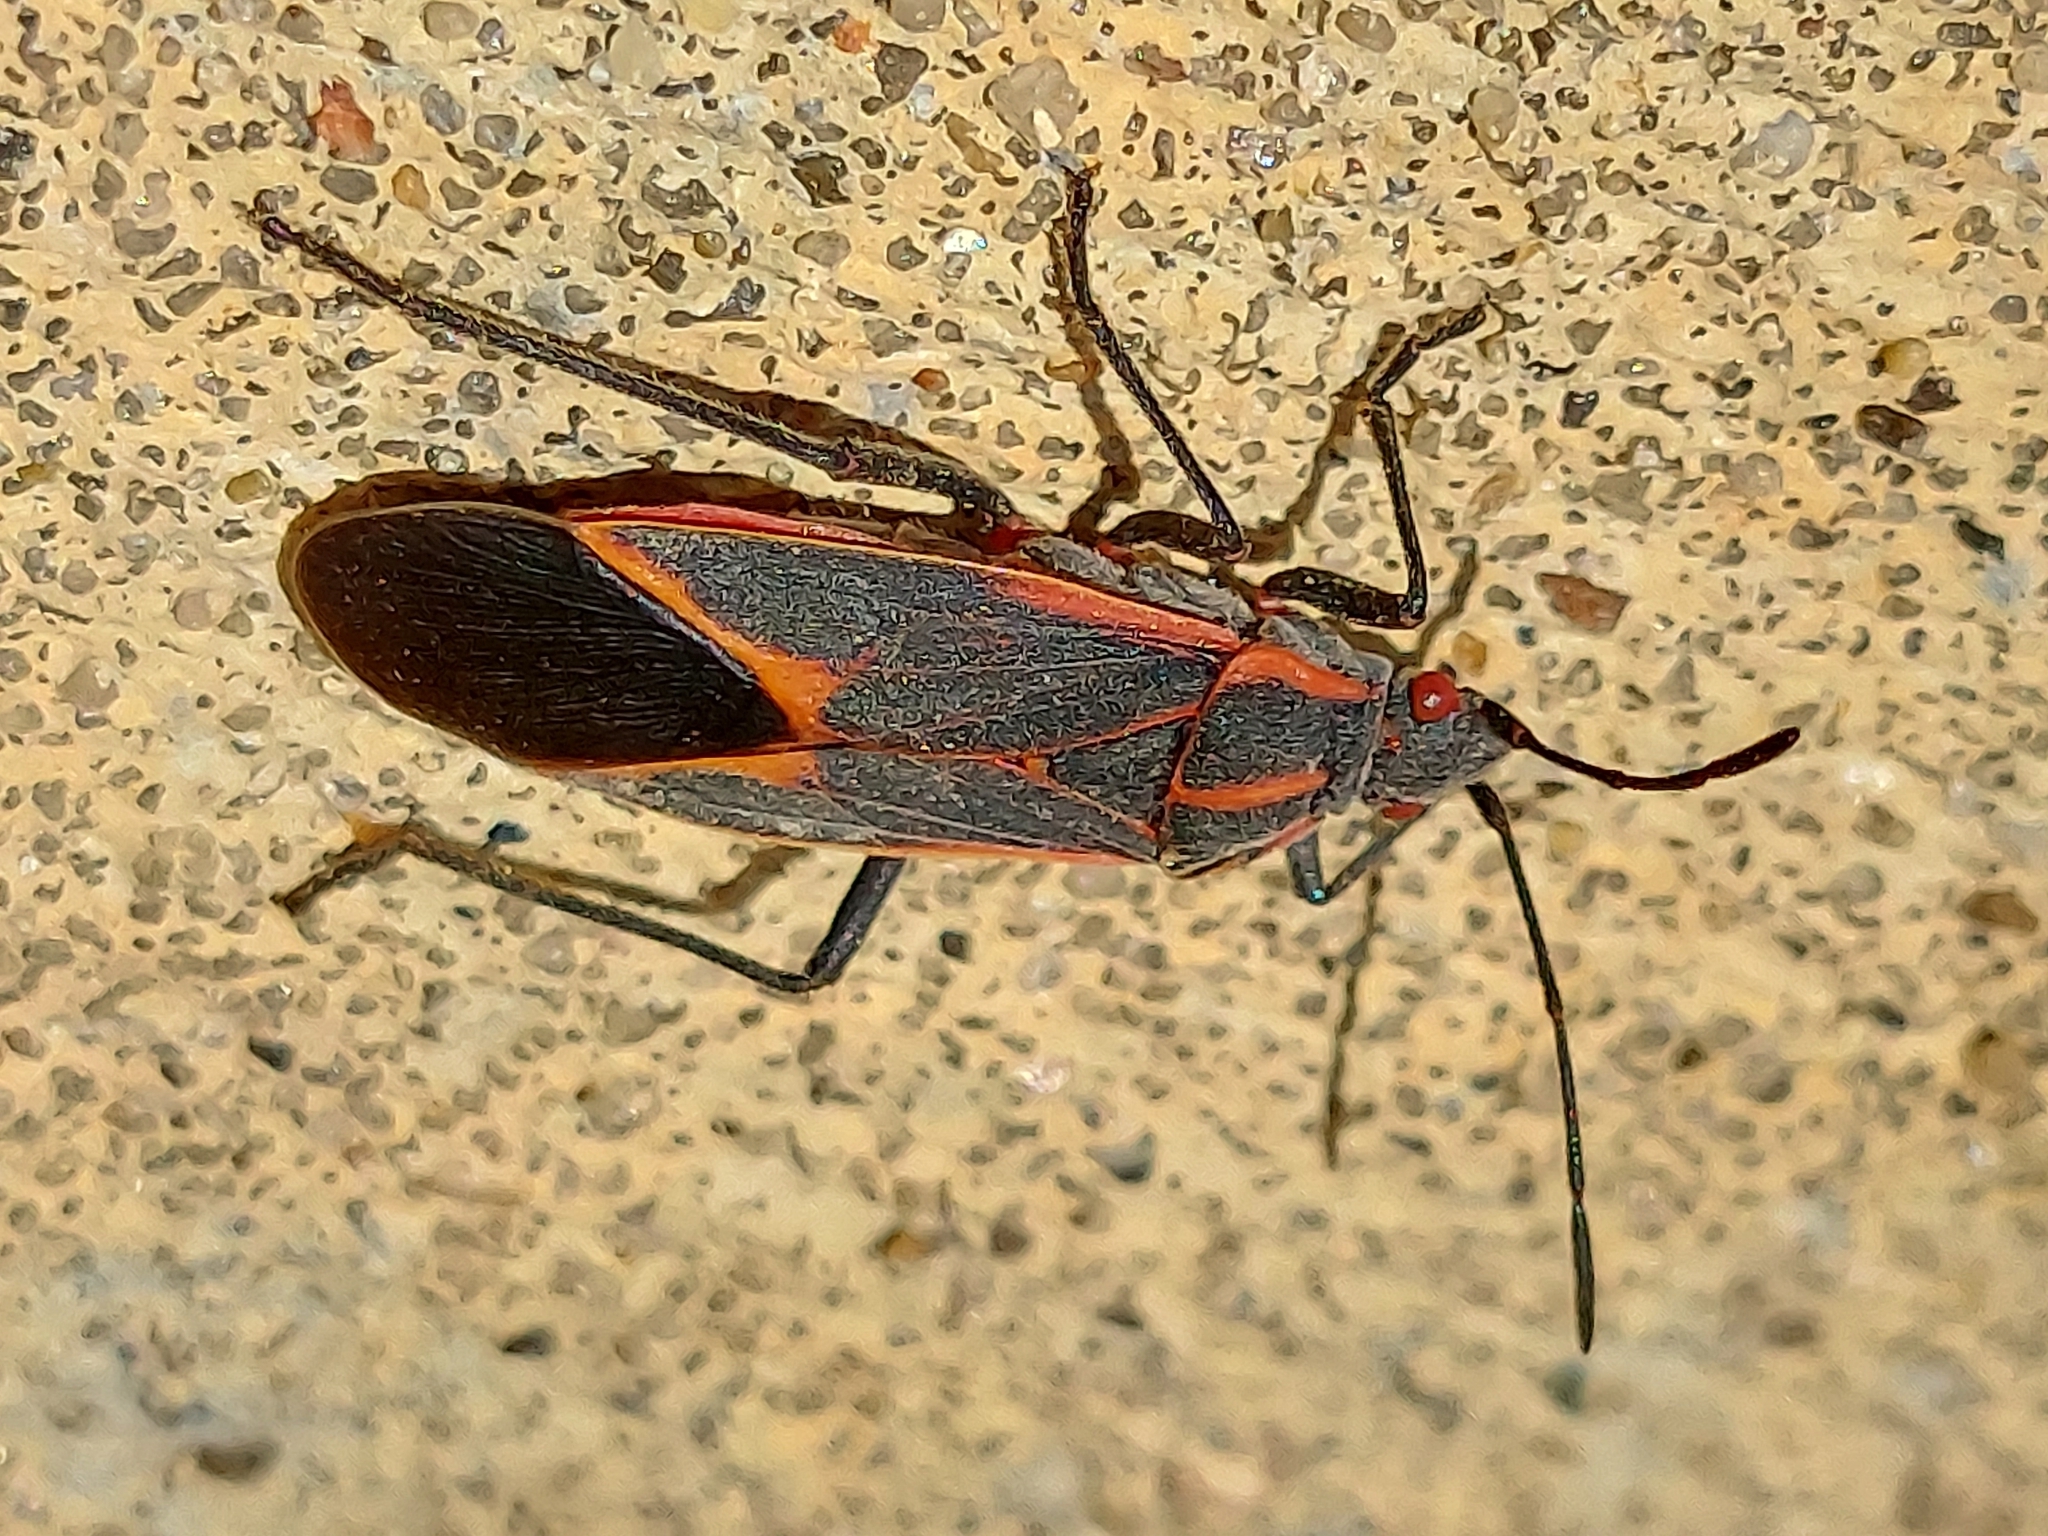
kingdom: Animalia
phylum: Arthropoda
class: Insecta
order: Hemiptera
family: Rhopalidae
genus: Boisea
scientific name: Boisea trivittata
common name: Boxelder bug
